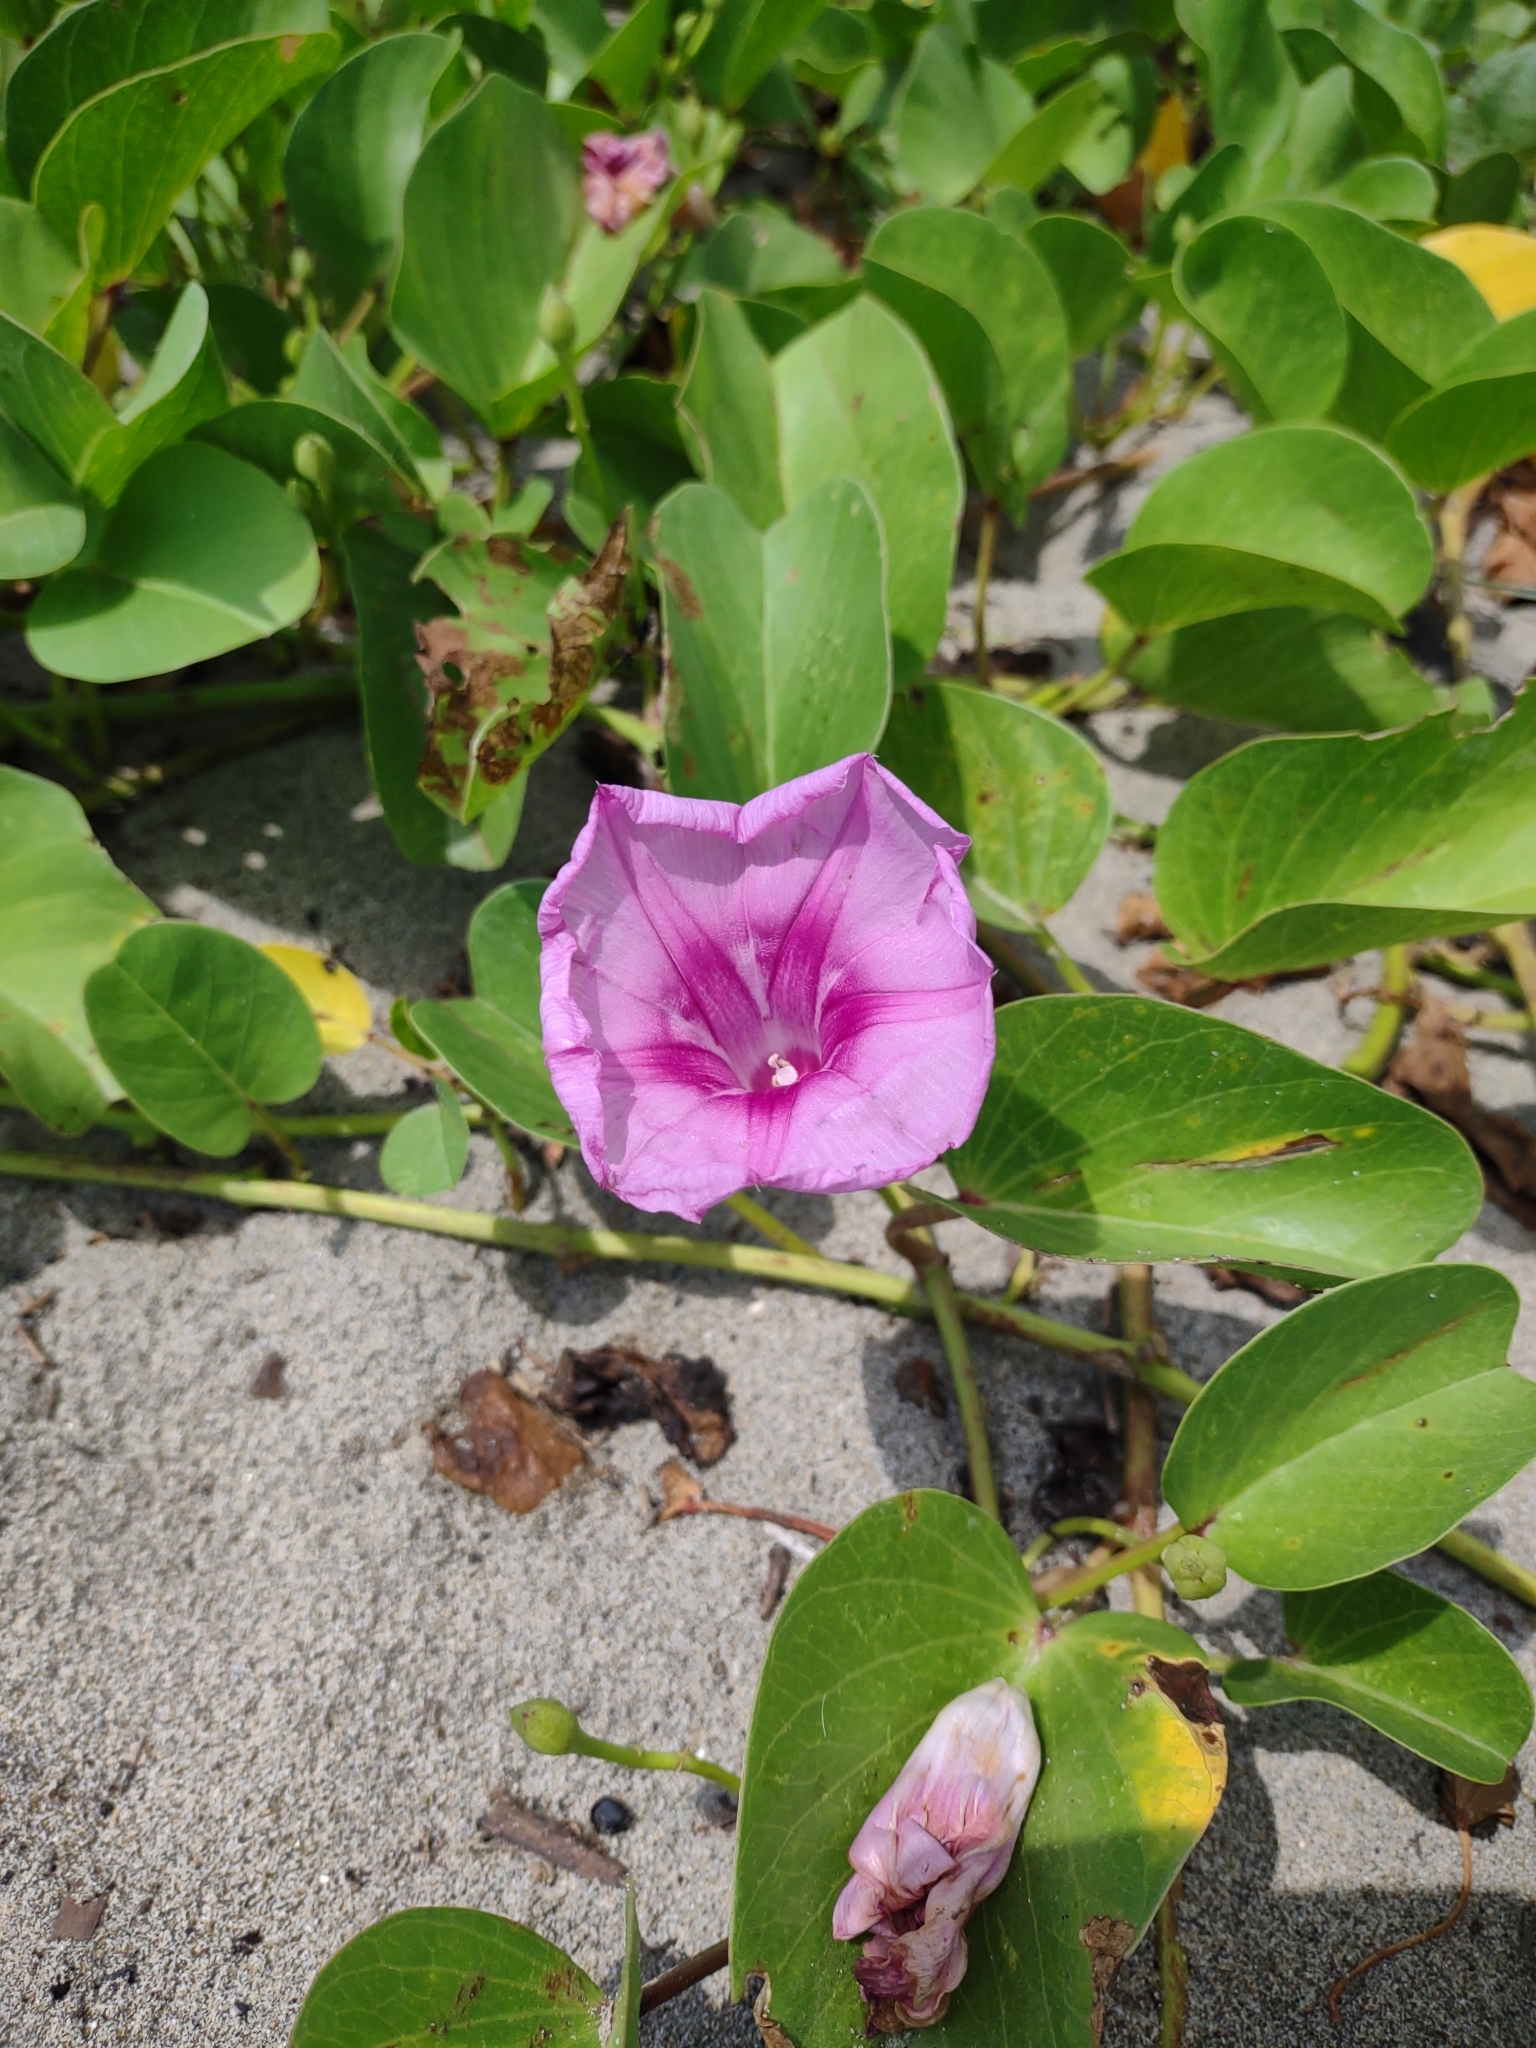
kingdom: Plantae
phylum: Tracheophyta
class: Magnoliopsida
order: Solanales
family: Convolvulaceae
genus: Ipomoea
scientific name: Ipomoea pes-caprae
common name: Beach morning glory
